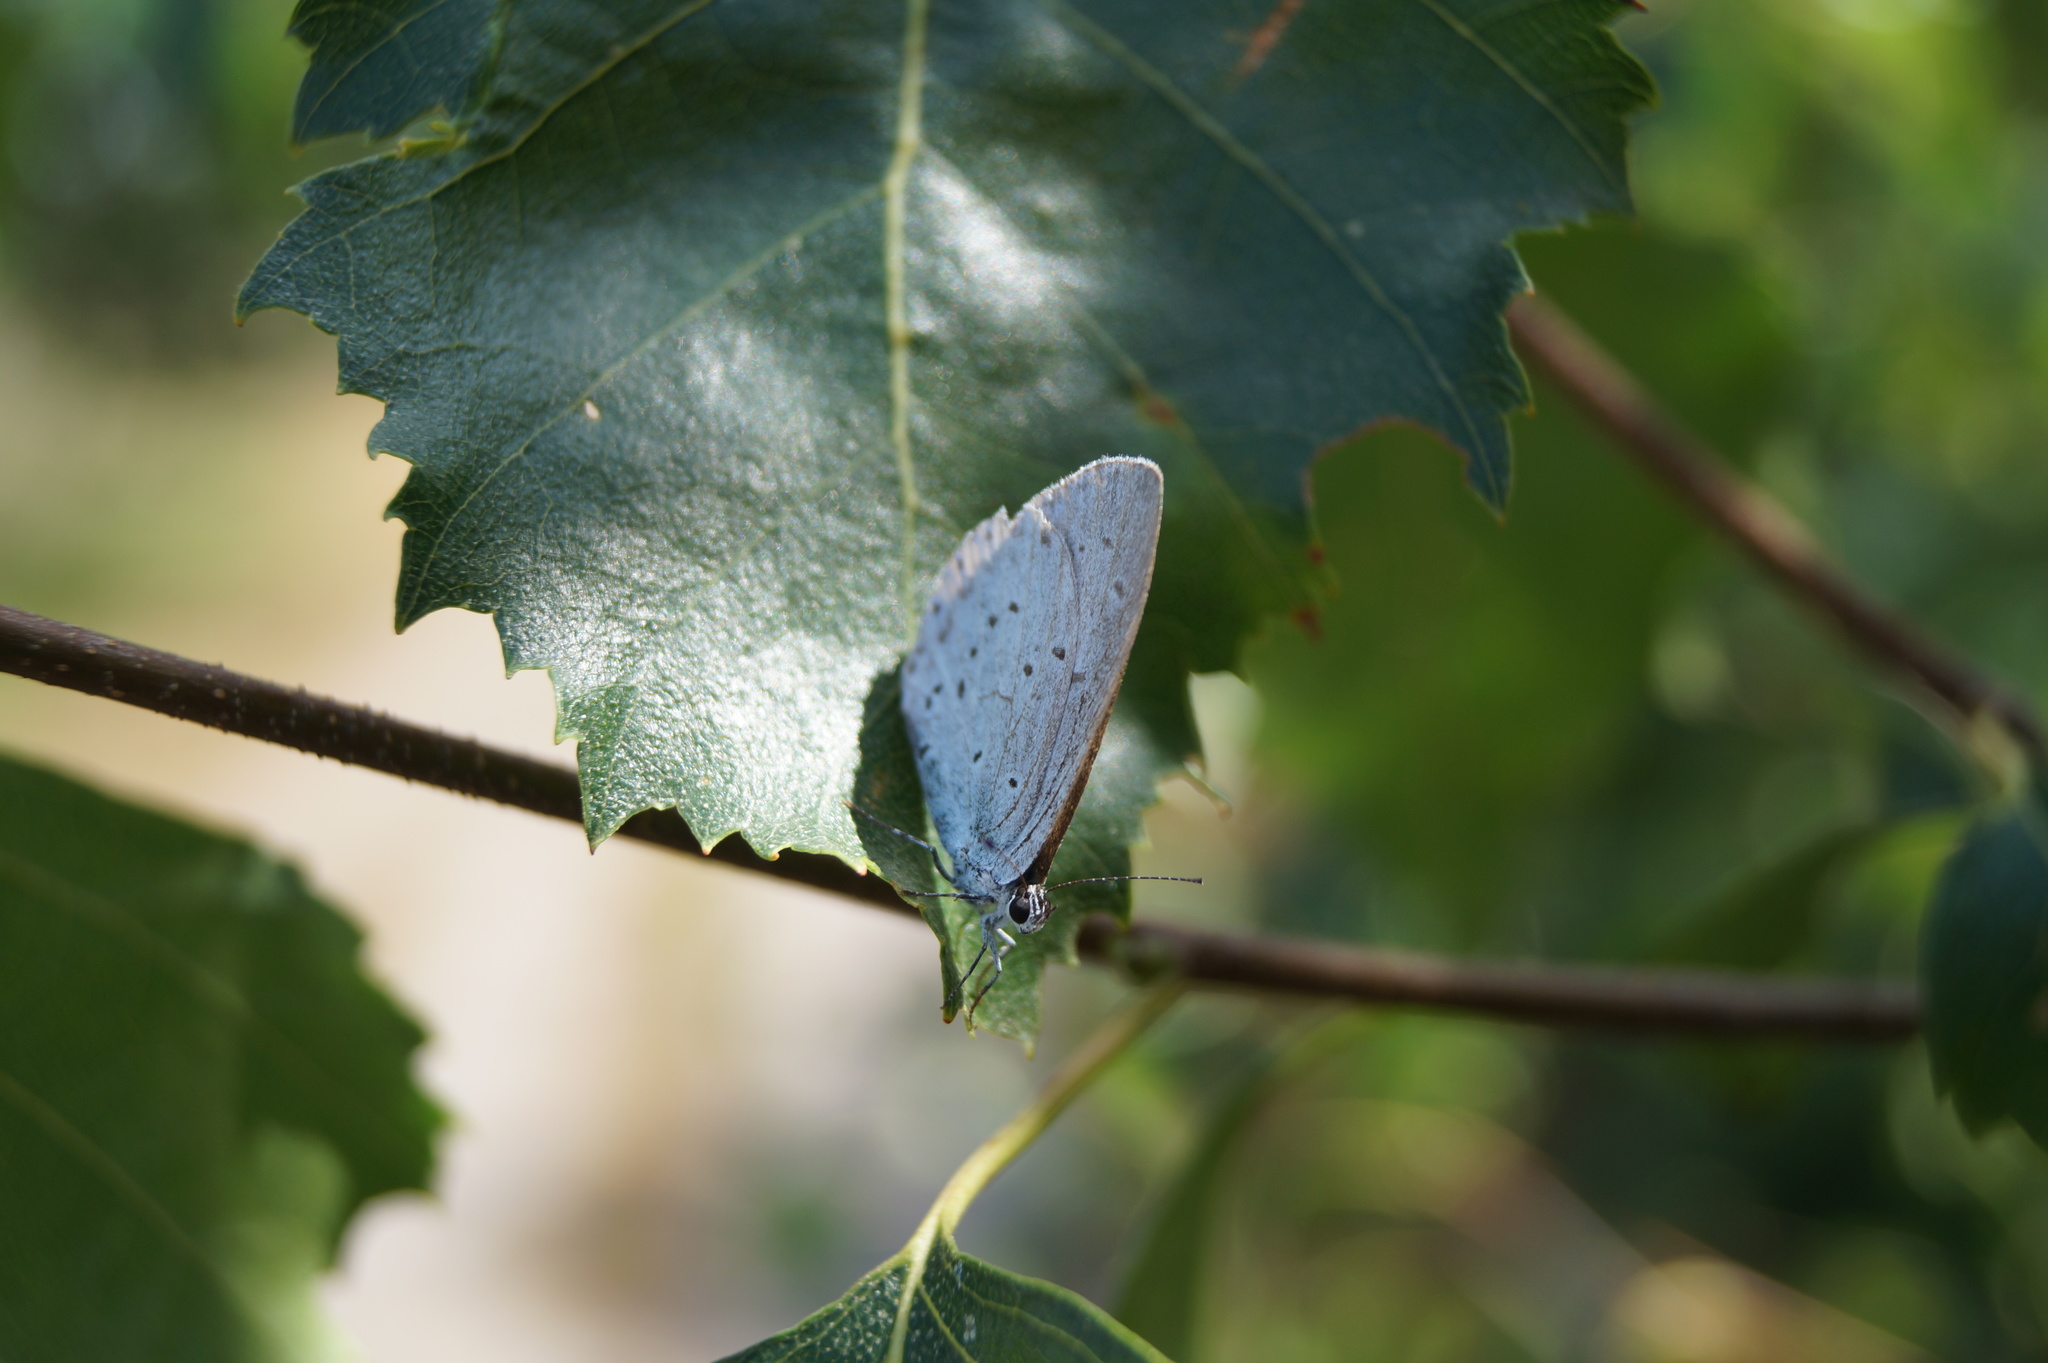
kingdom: Animalia
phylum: Arthropoda
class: Insecta
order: Lepidoptera
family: Lycaenidae
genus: Celastrina
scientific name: Celastrina argiolus
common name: Holly blue
